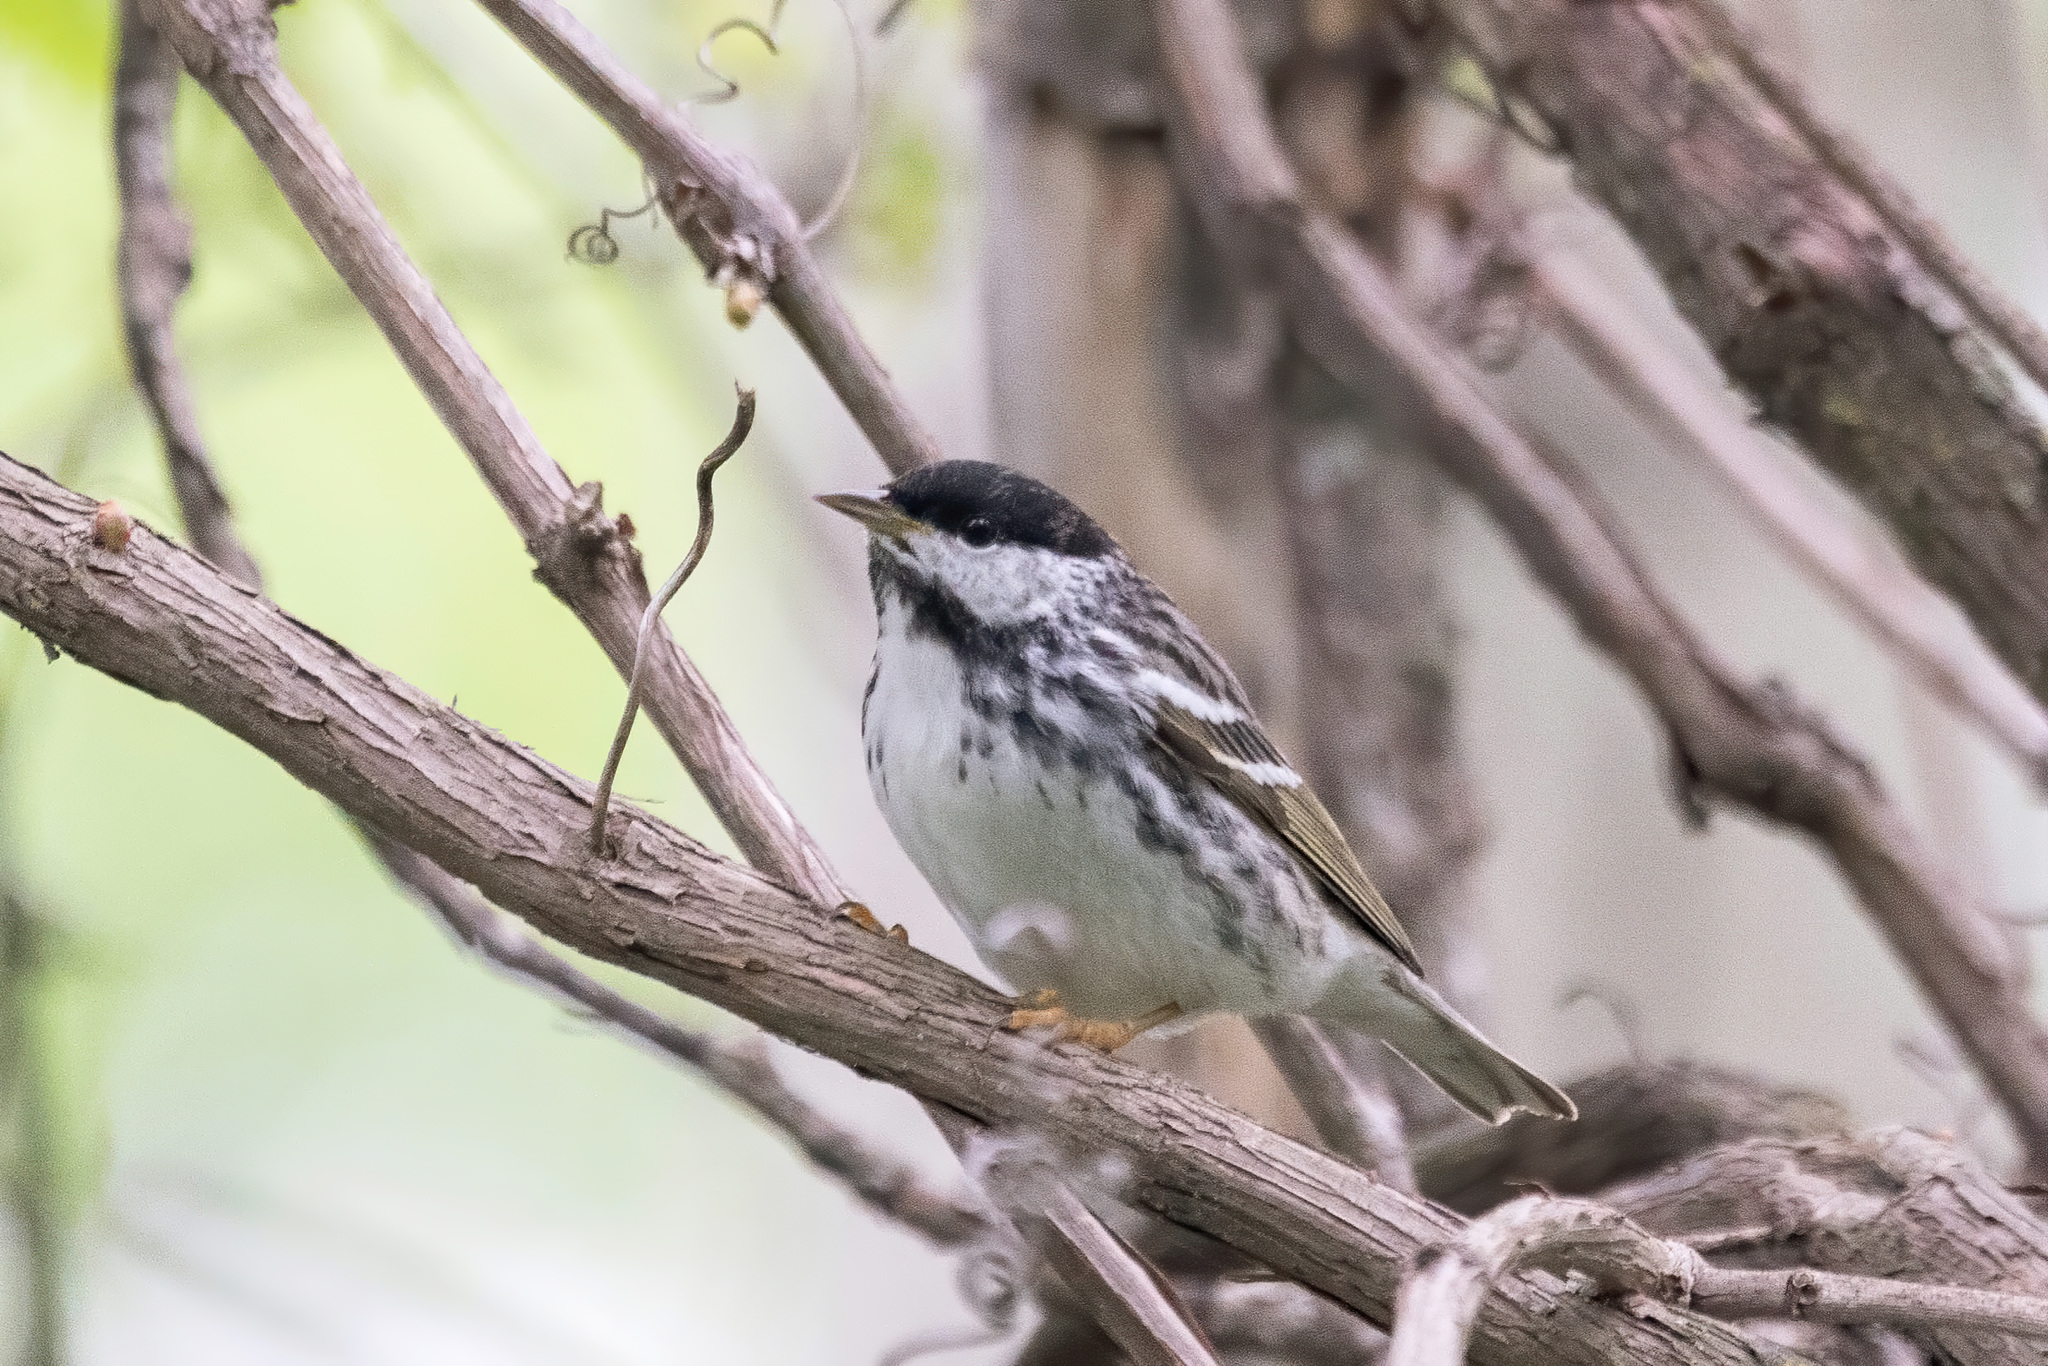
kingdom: Animalia
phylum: Chordata
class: Aves
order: Passeriformes
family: Parulidae
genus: Setophaga
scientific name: Setophaga striata
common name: Blackpoll warbler
